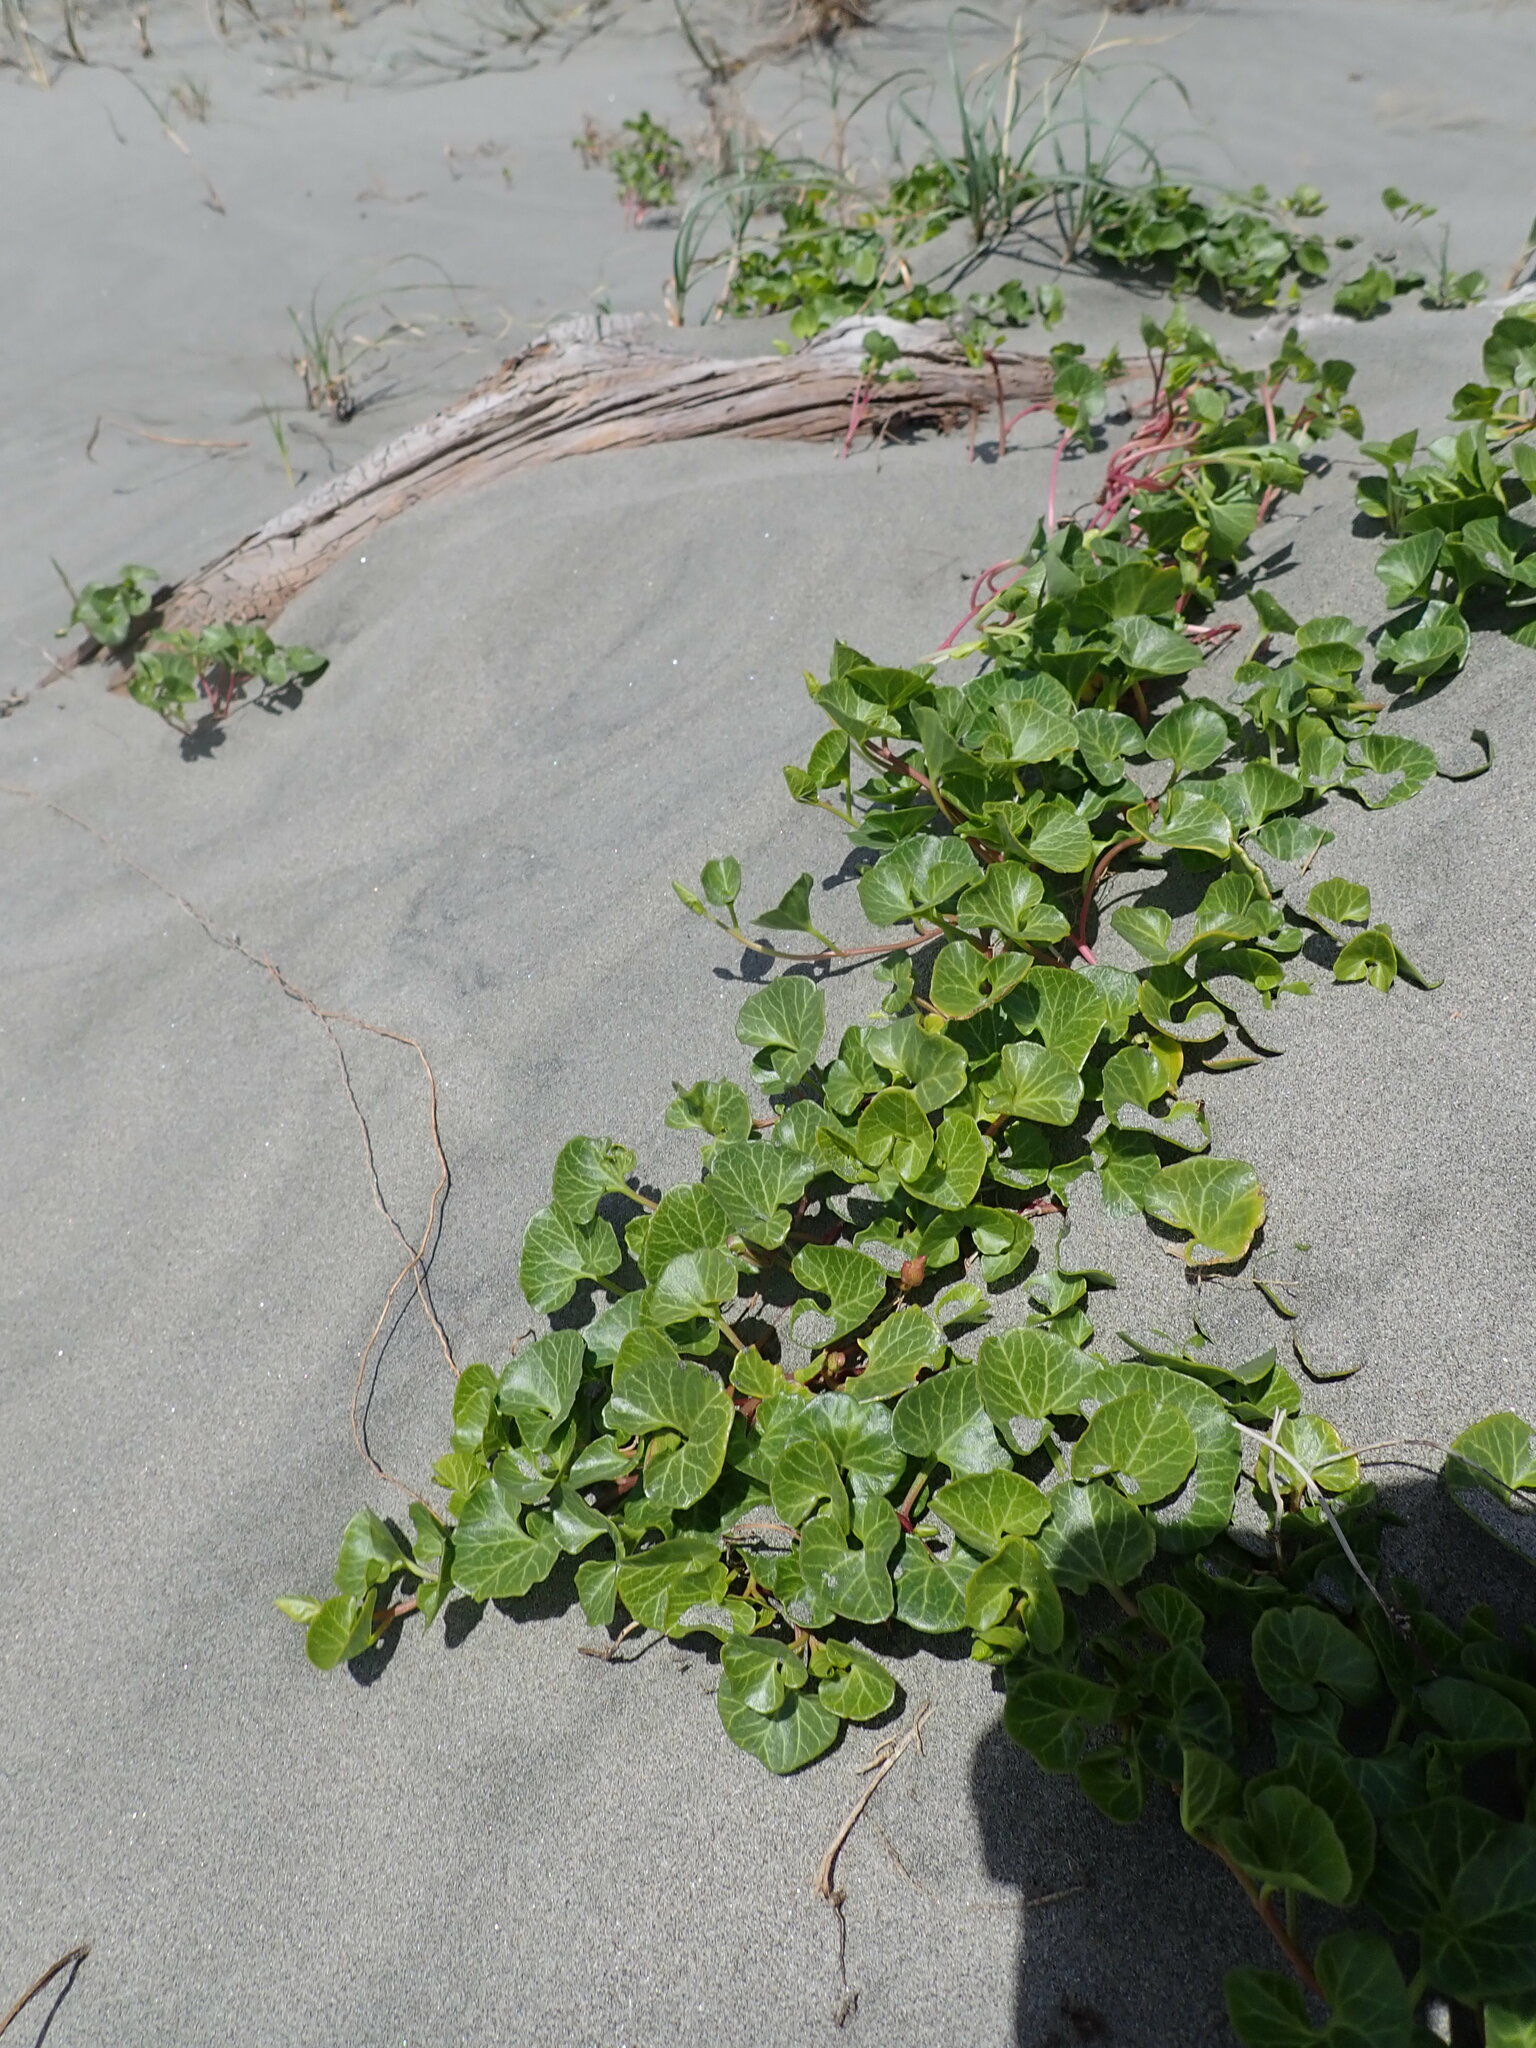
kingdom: Plantae
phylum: Tracheophyta
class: Magnoliopsida
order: Solanales
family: Convolvulaceae
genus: Calystegia
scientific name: Calystegia soldanella
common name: Sea bindweed
